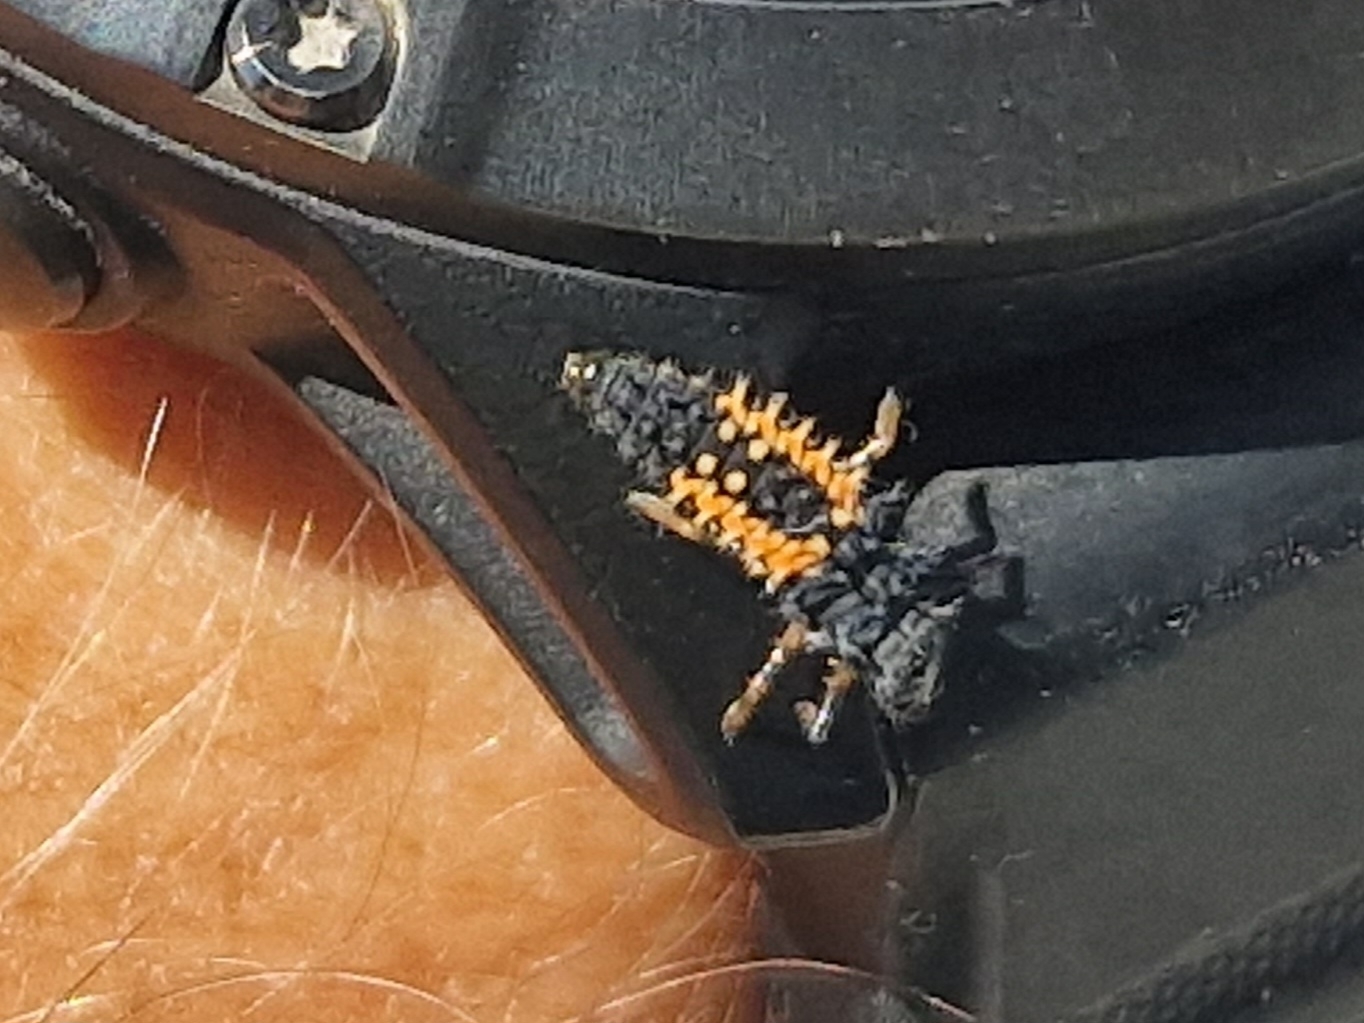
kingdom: Animalia
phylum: Arthropoda
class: Insecta
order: Coleoptera
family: Coccinellidae
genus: Harmonia
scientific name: Harmonia axyridis
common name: Harlequin ladybird
